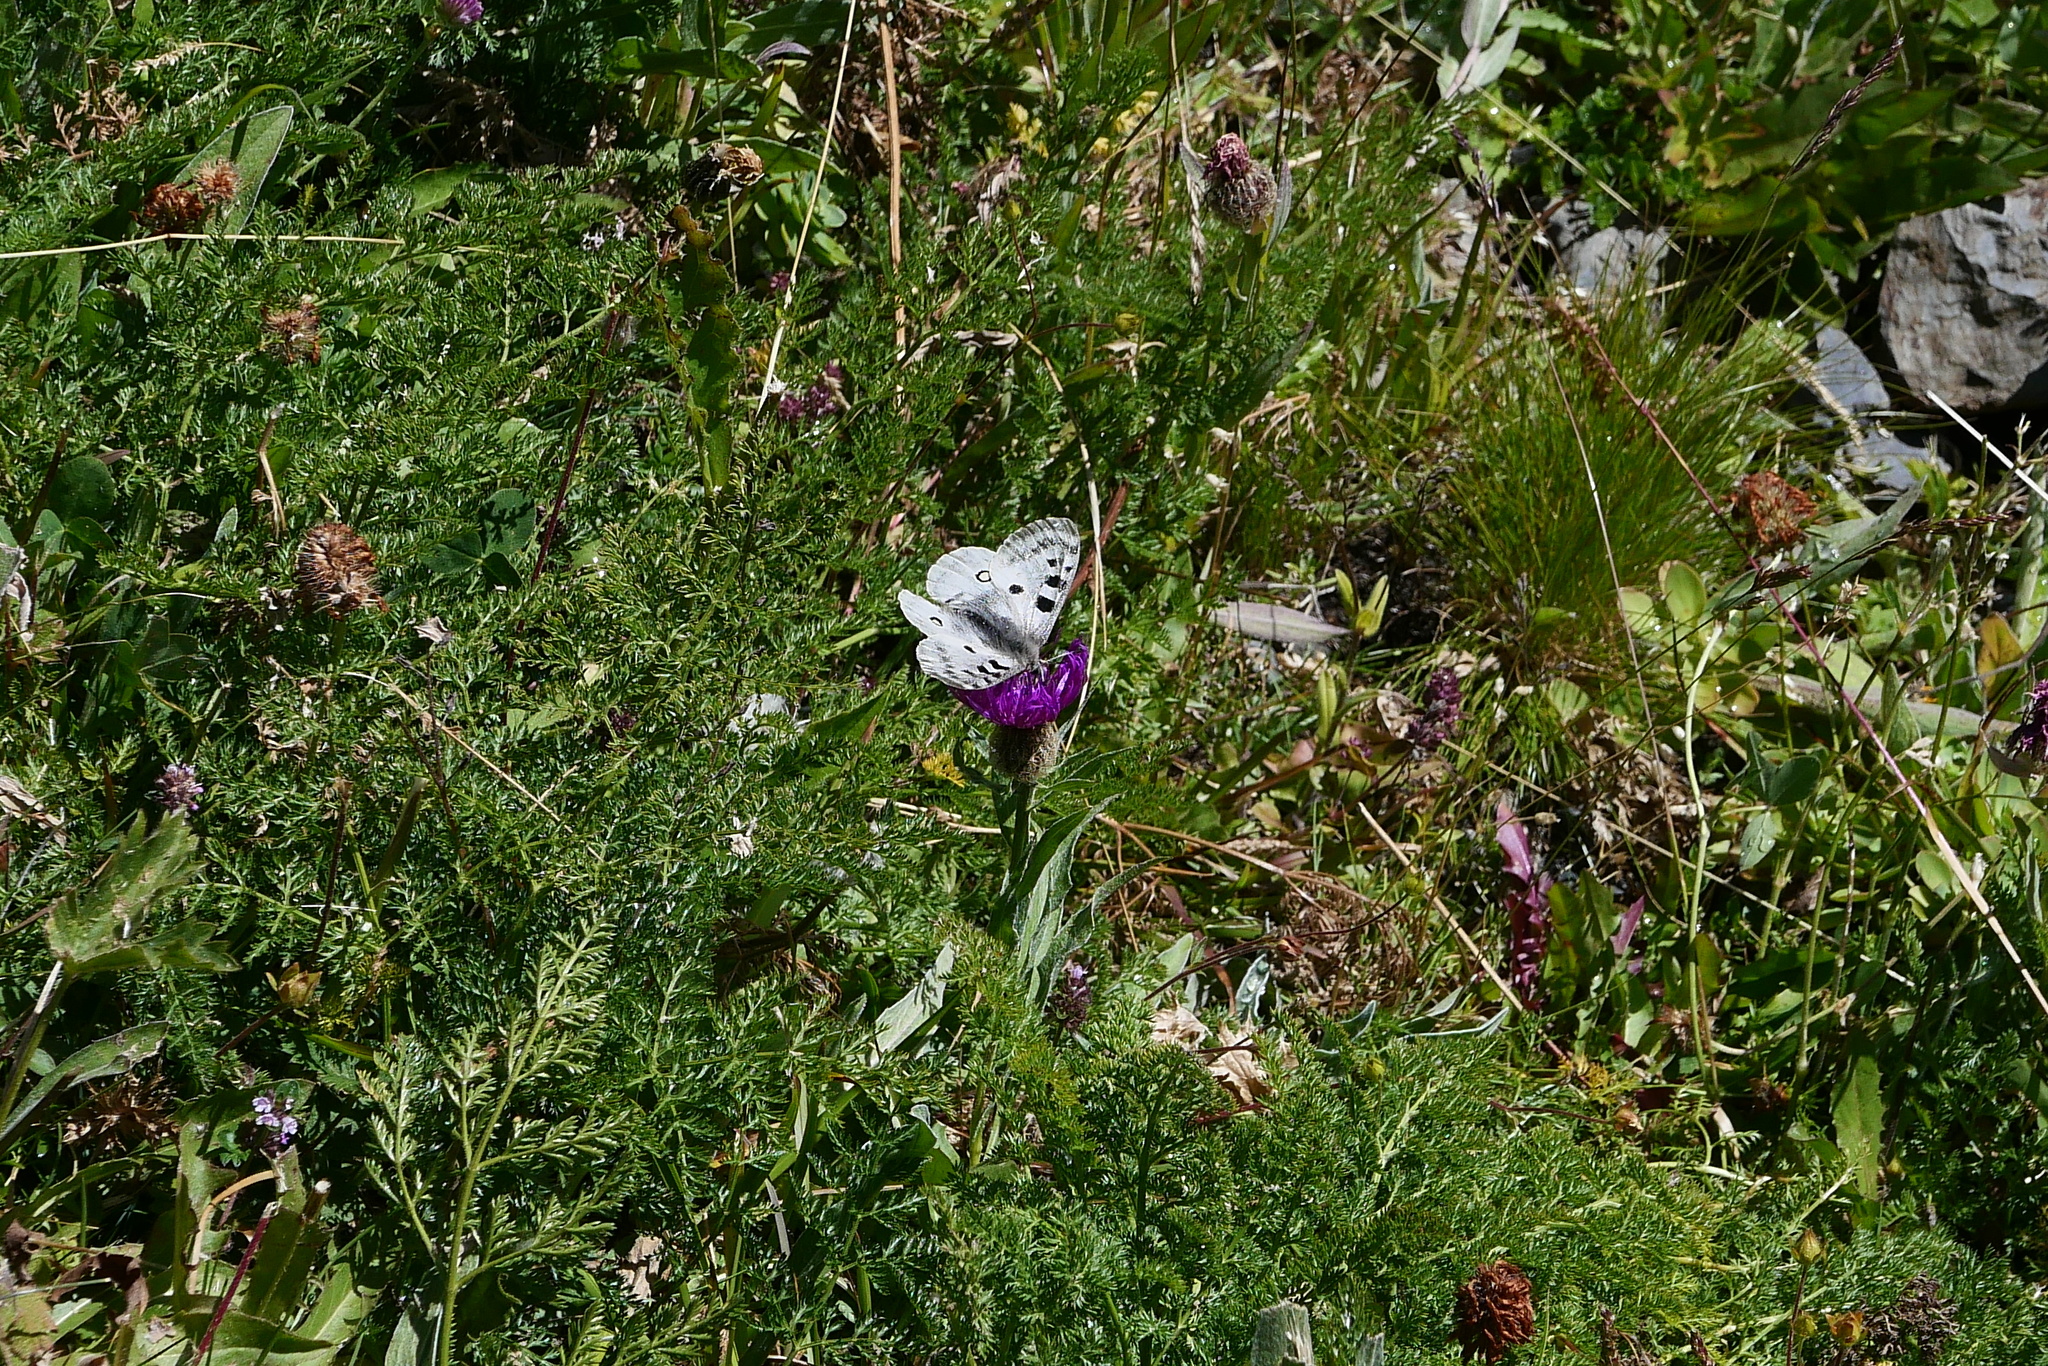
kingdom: Animalia
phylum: Arthropoda
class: Insecta
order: Lepidoptera
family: Papilionidae
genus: Parnassius
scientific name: Parnassius apollo
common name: Apollo
